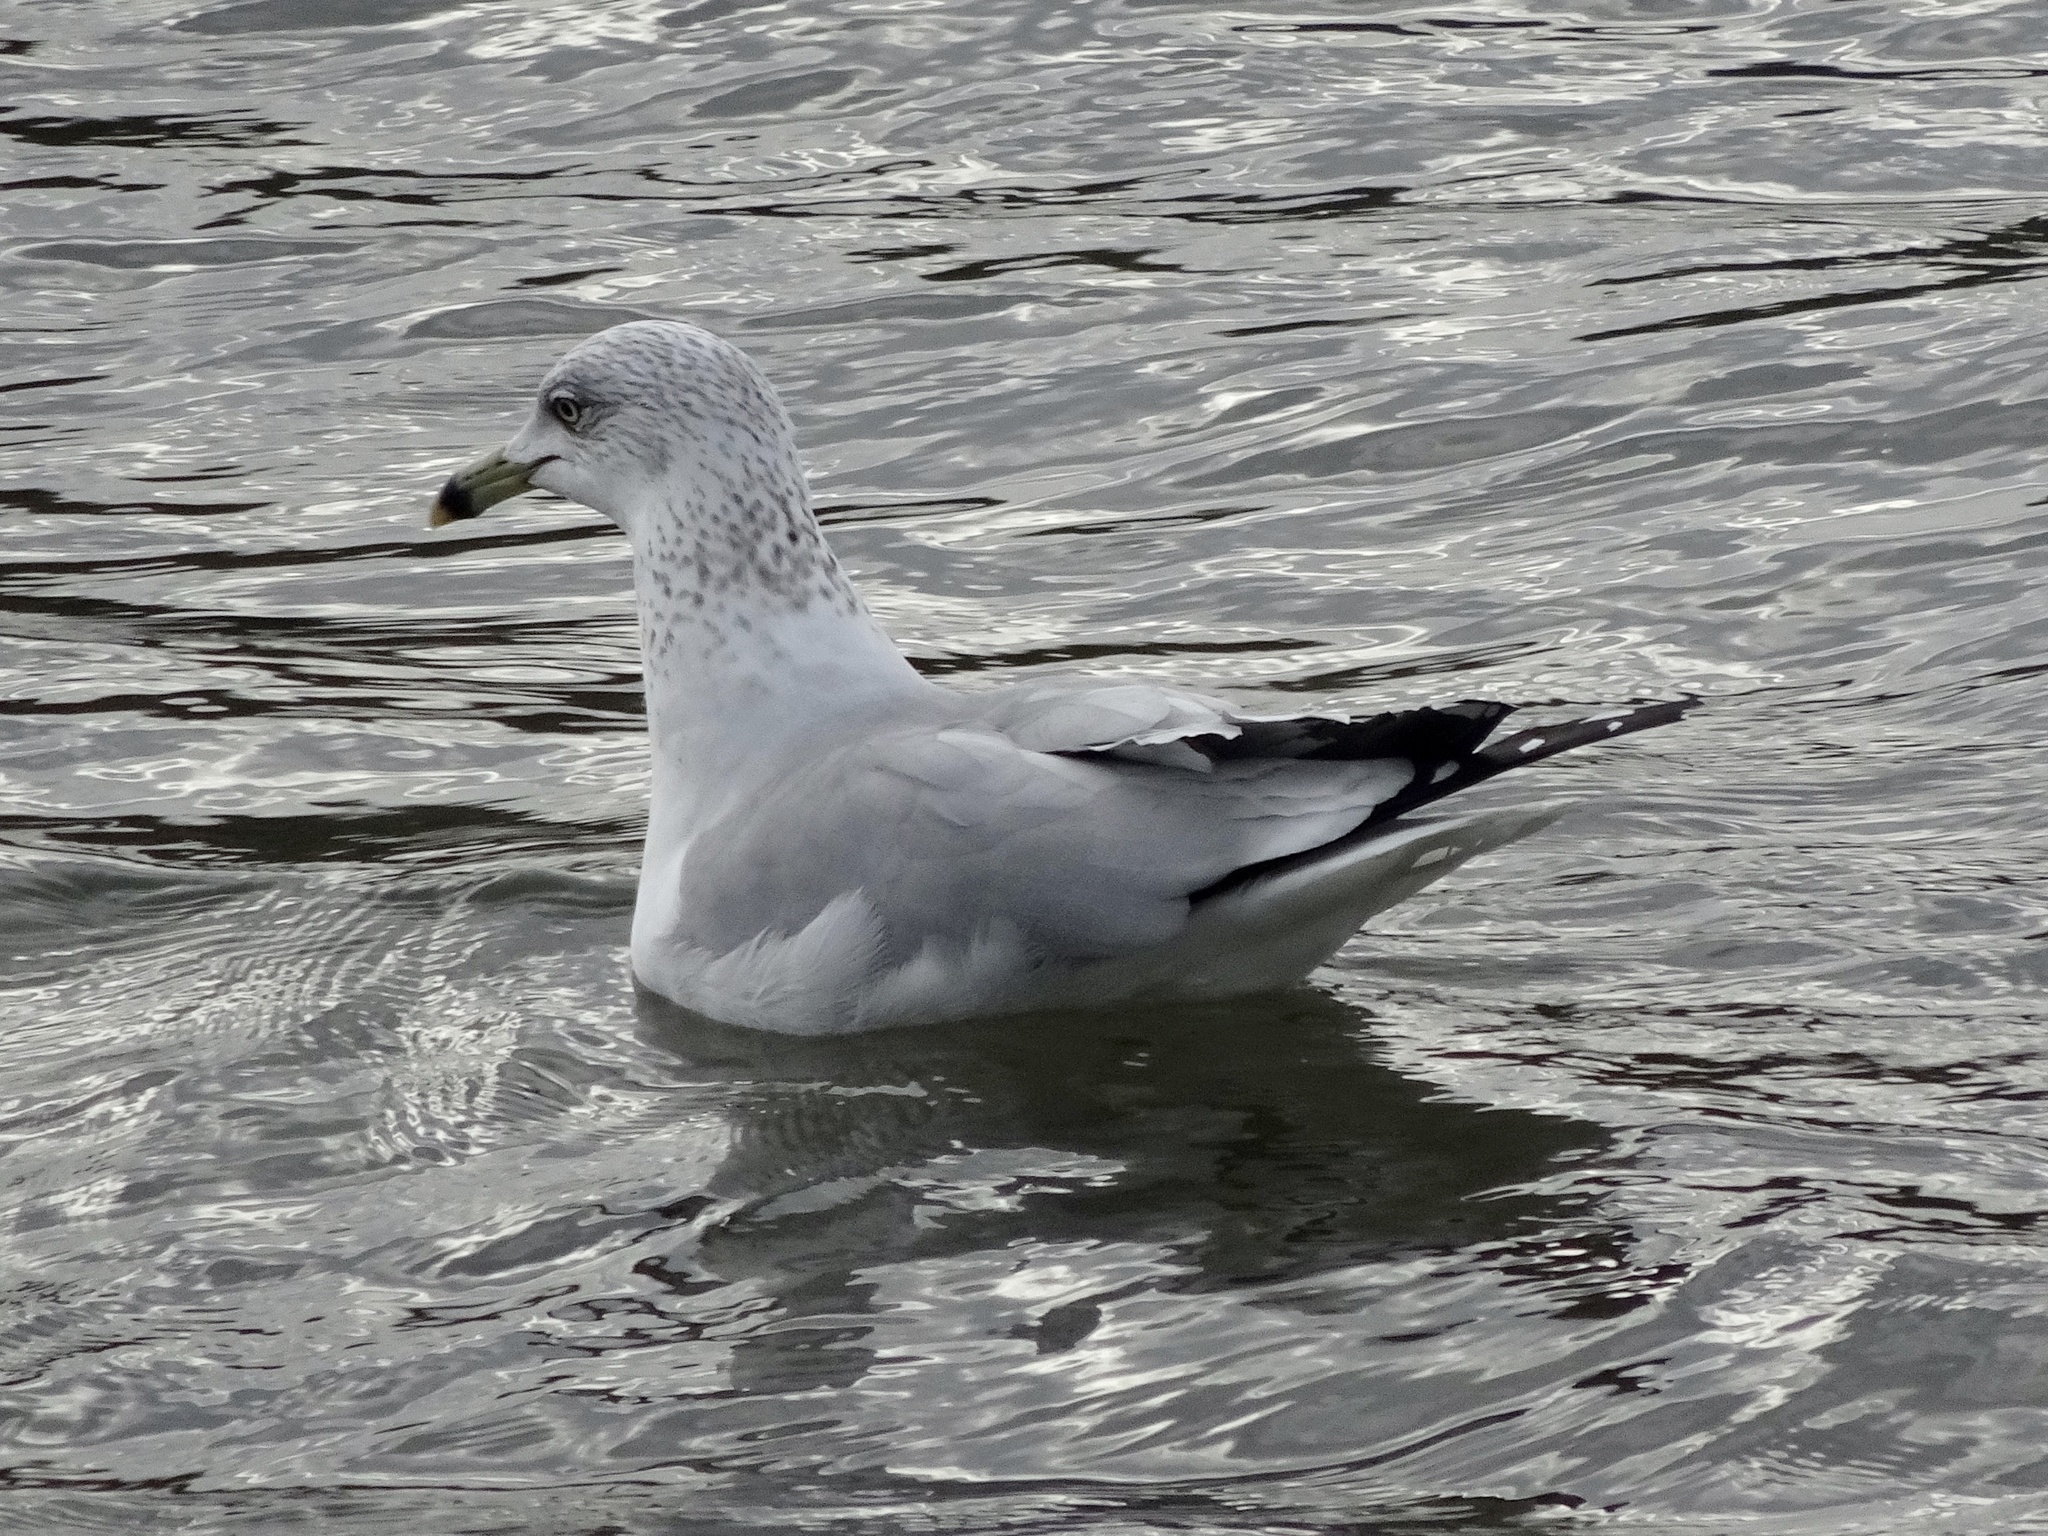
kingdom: Animalia
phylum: Chordata
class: Aves
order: Charadriiformes
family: Laridae
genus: Larus
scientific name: Larus delawarensis
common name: Ring-billed gull
